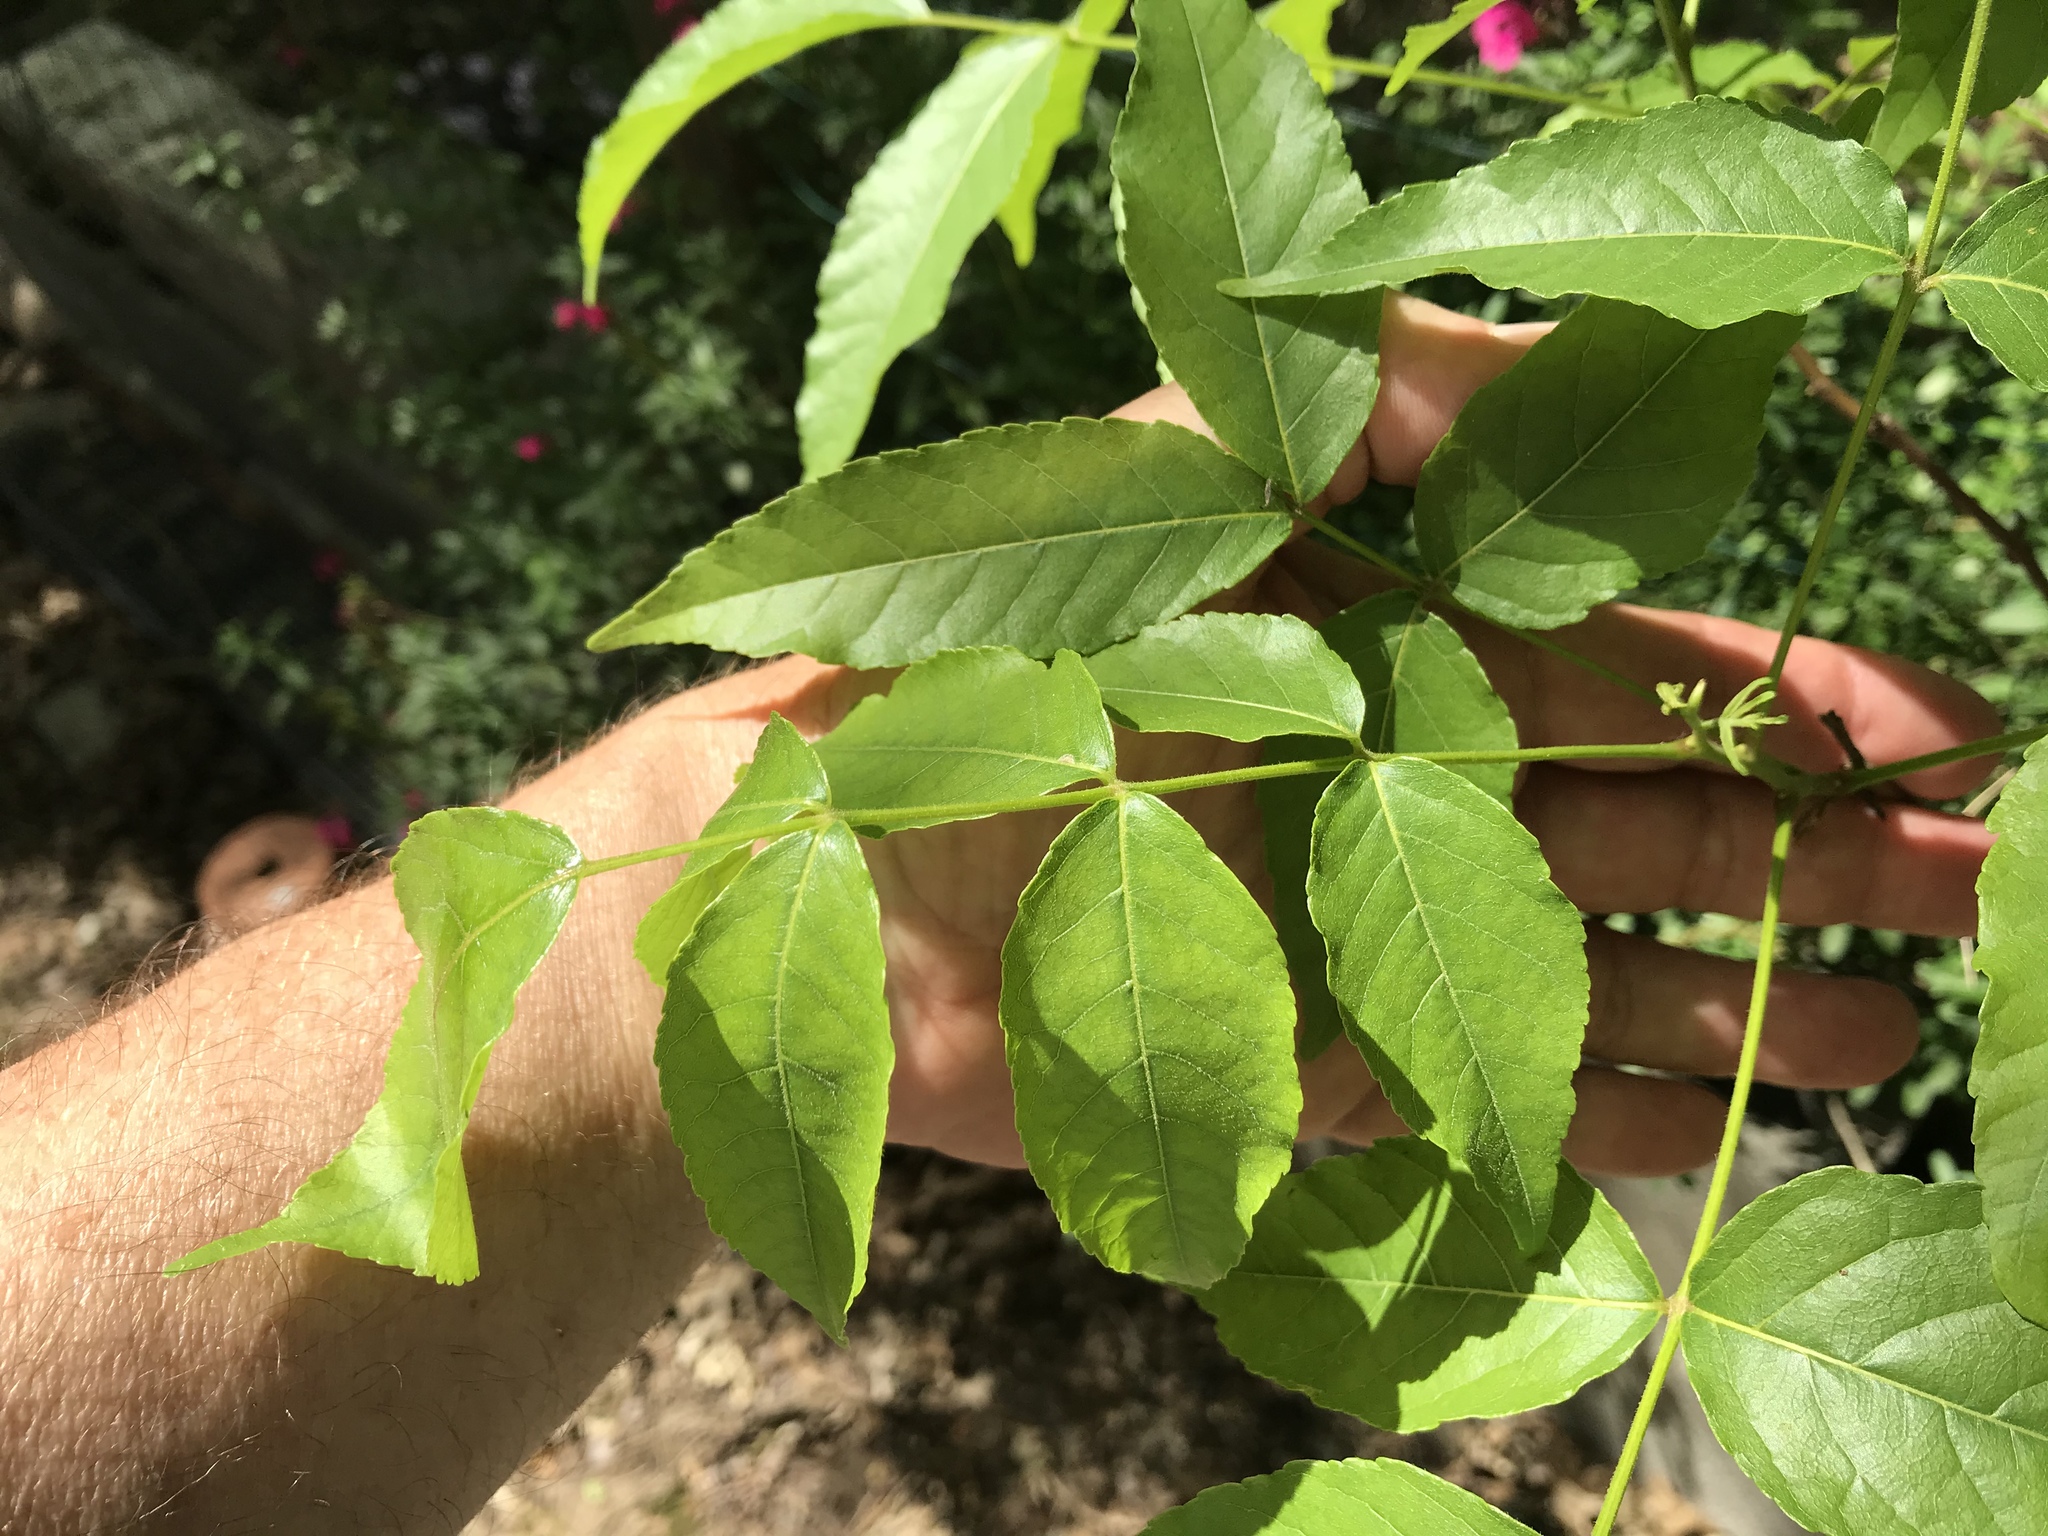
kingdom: Plantae
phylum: Tracheophyta
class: Magnoliopsida
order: Sapindales
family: Sapindaceae
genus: Ungnadia
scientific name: Ungnadia speciosa
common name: Texas-buckeye
